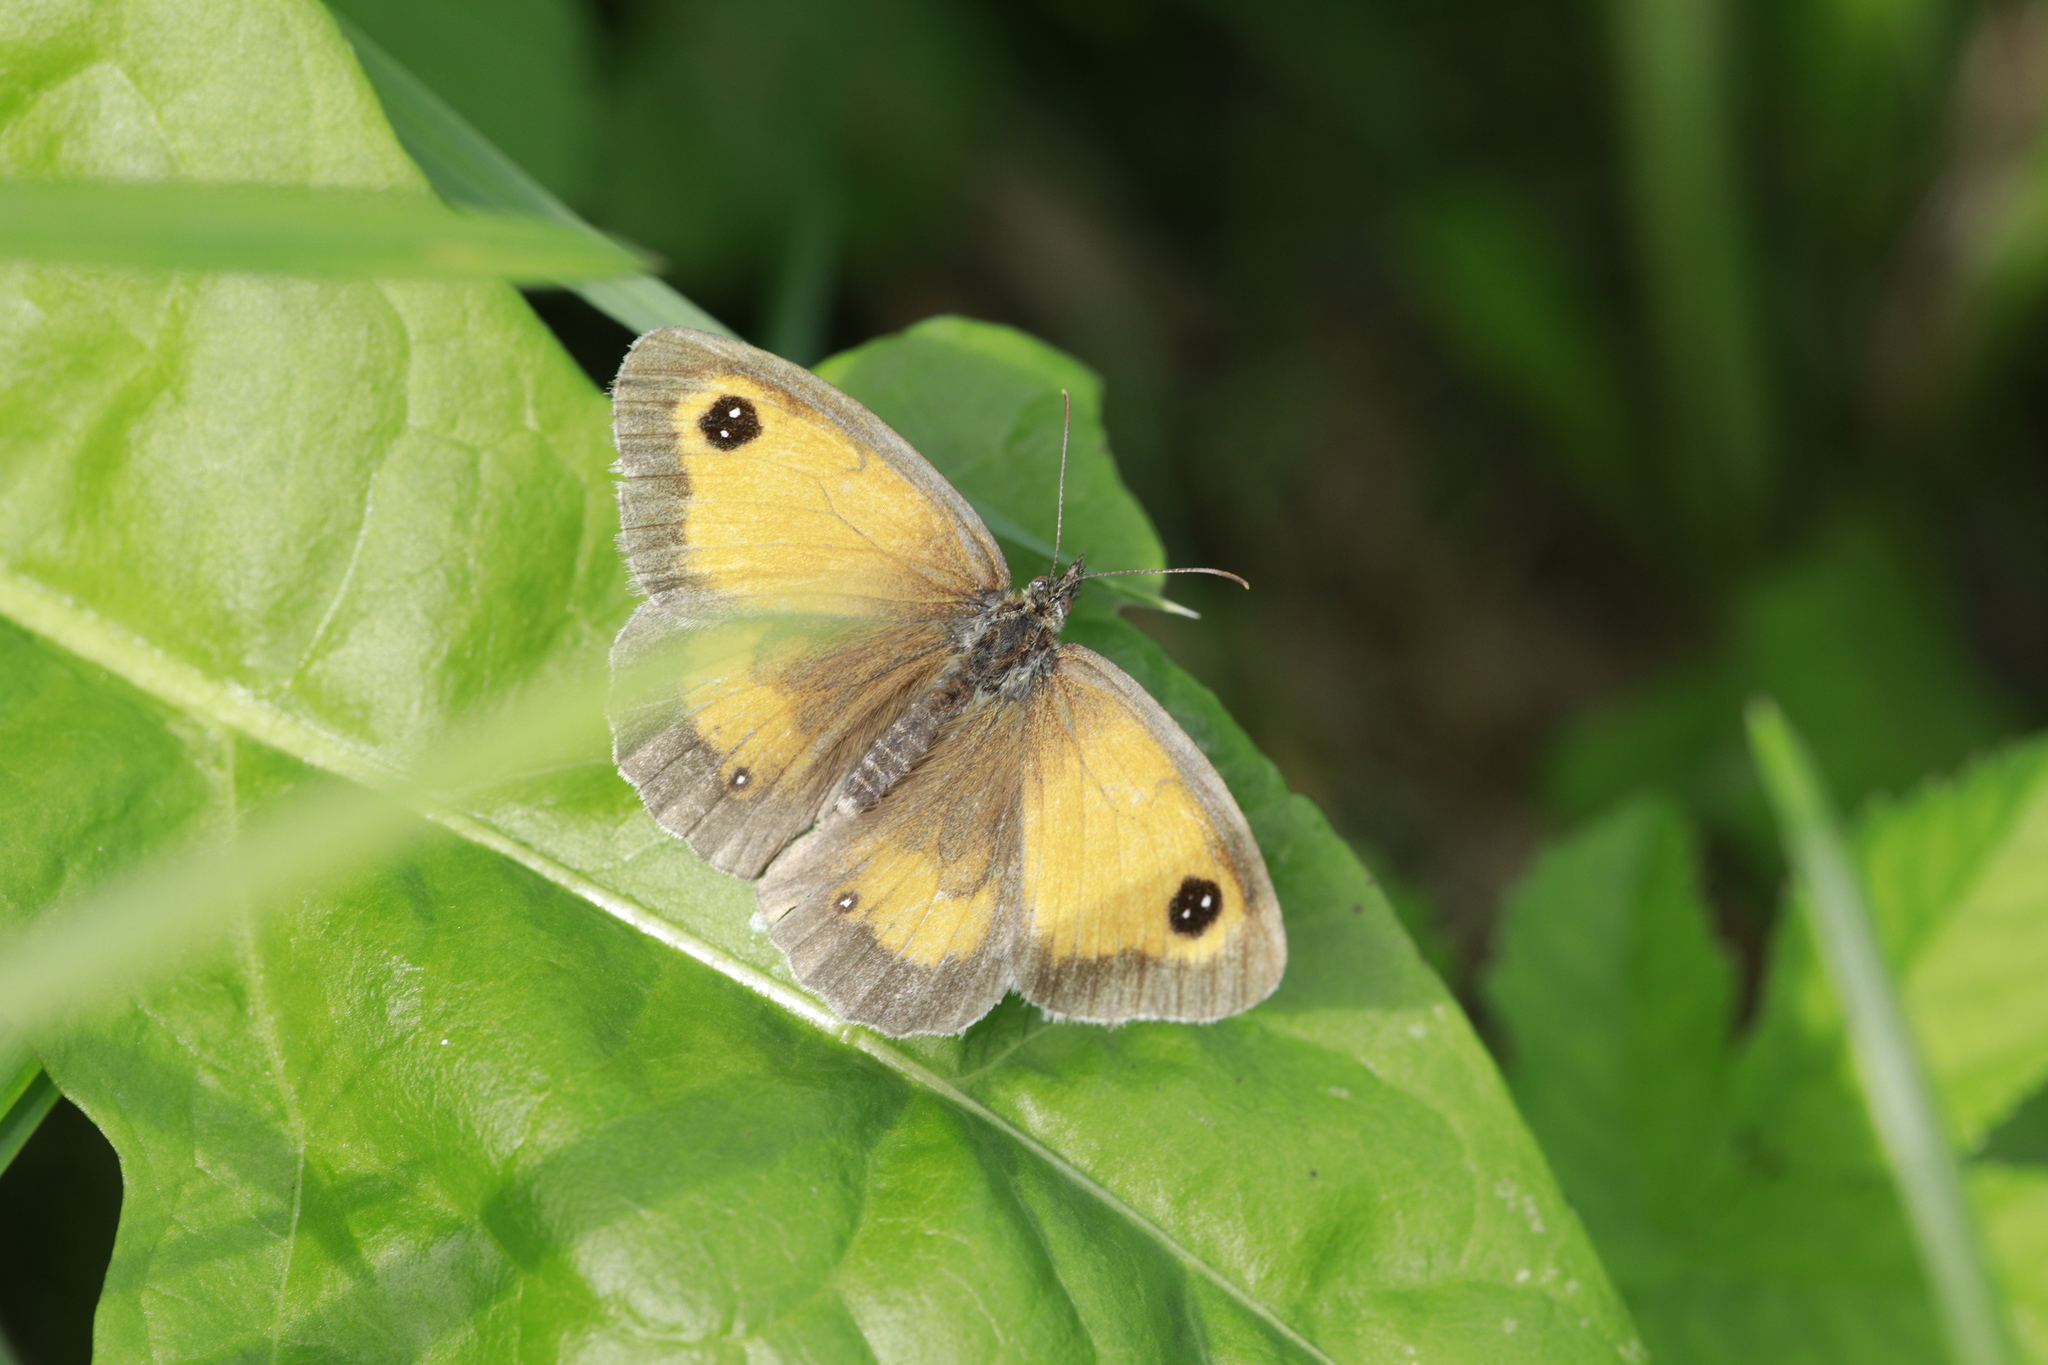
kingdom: Animalia
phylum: Arthropoda
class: Insecta
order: Lepidoptera
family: Nymphalidae
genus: Pyronia
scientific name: Pyronia tithonus
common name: Gatekeeper
